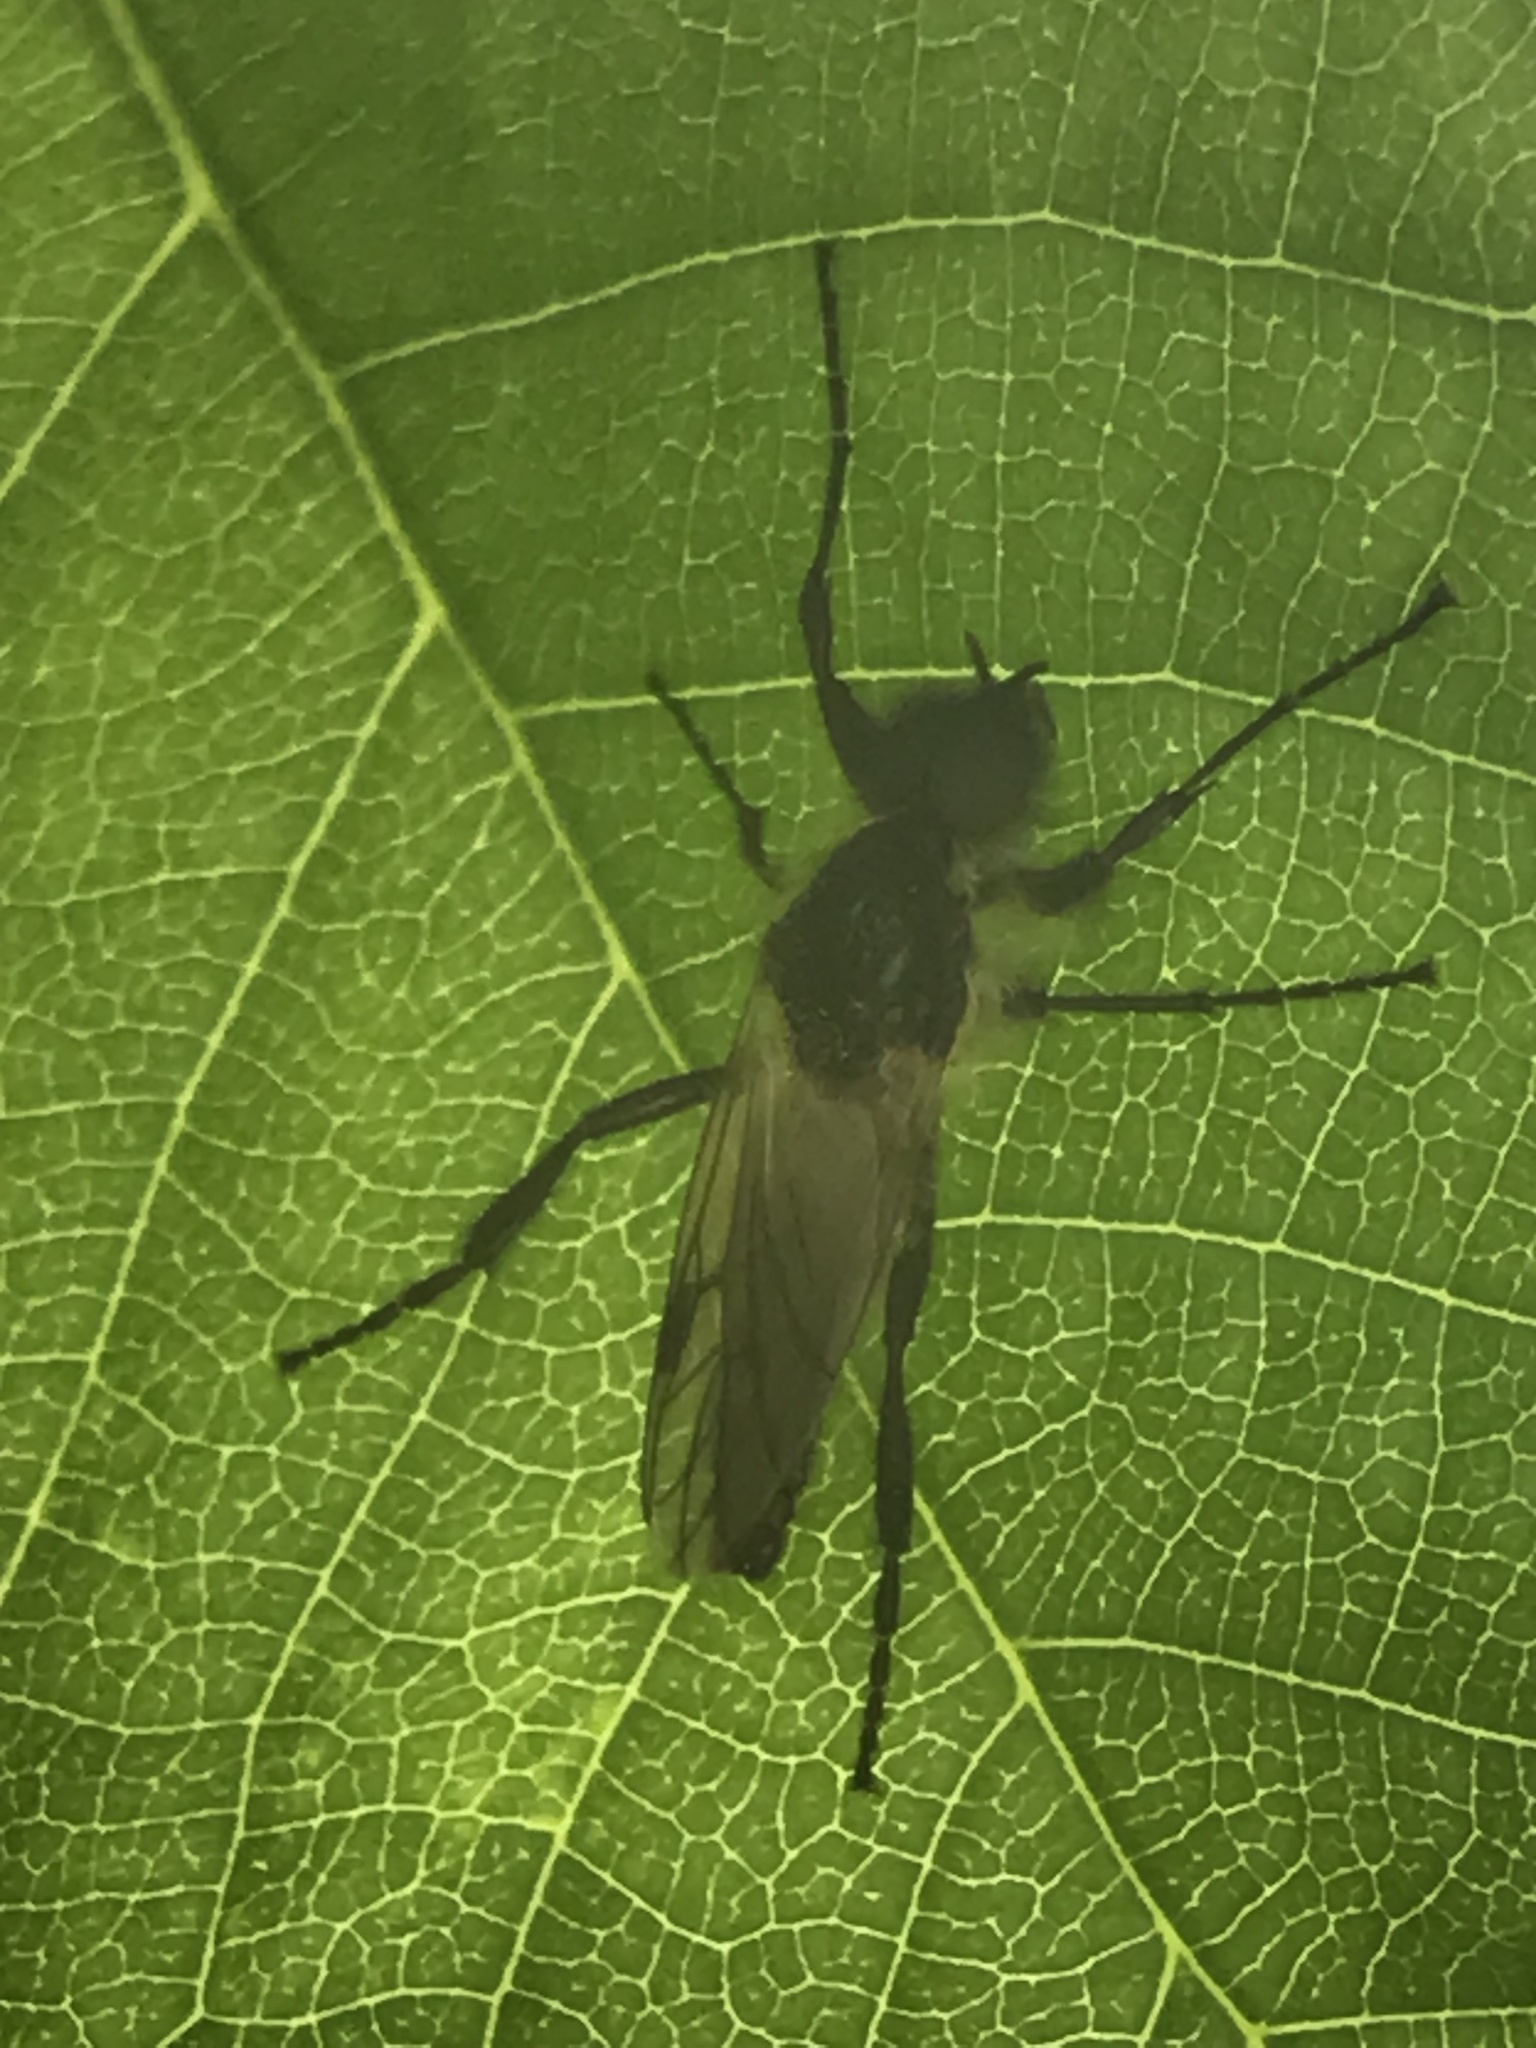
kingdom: Animalia
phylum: Arthropoda
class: Insecta
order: Diptera
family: Bibionidae
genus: Bibio
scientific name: Bibio
